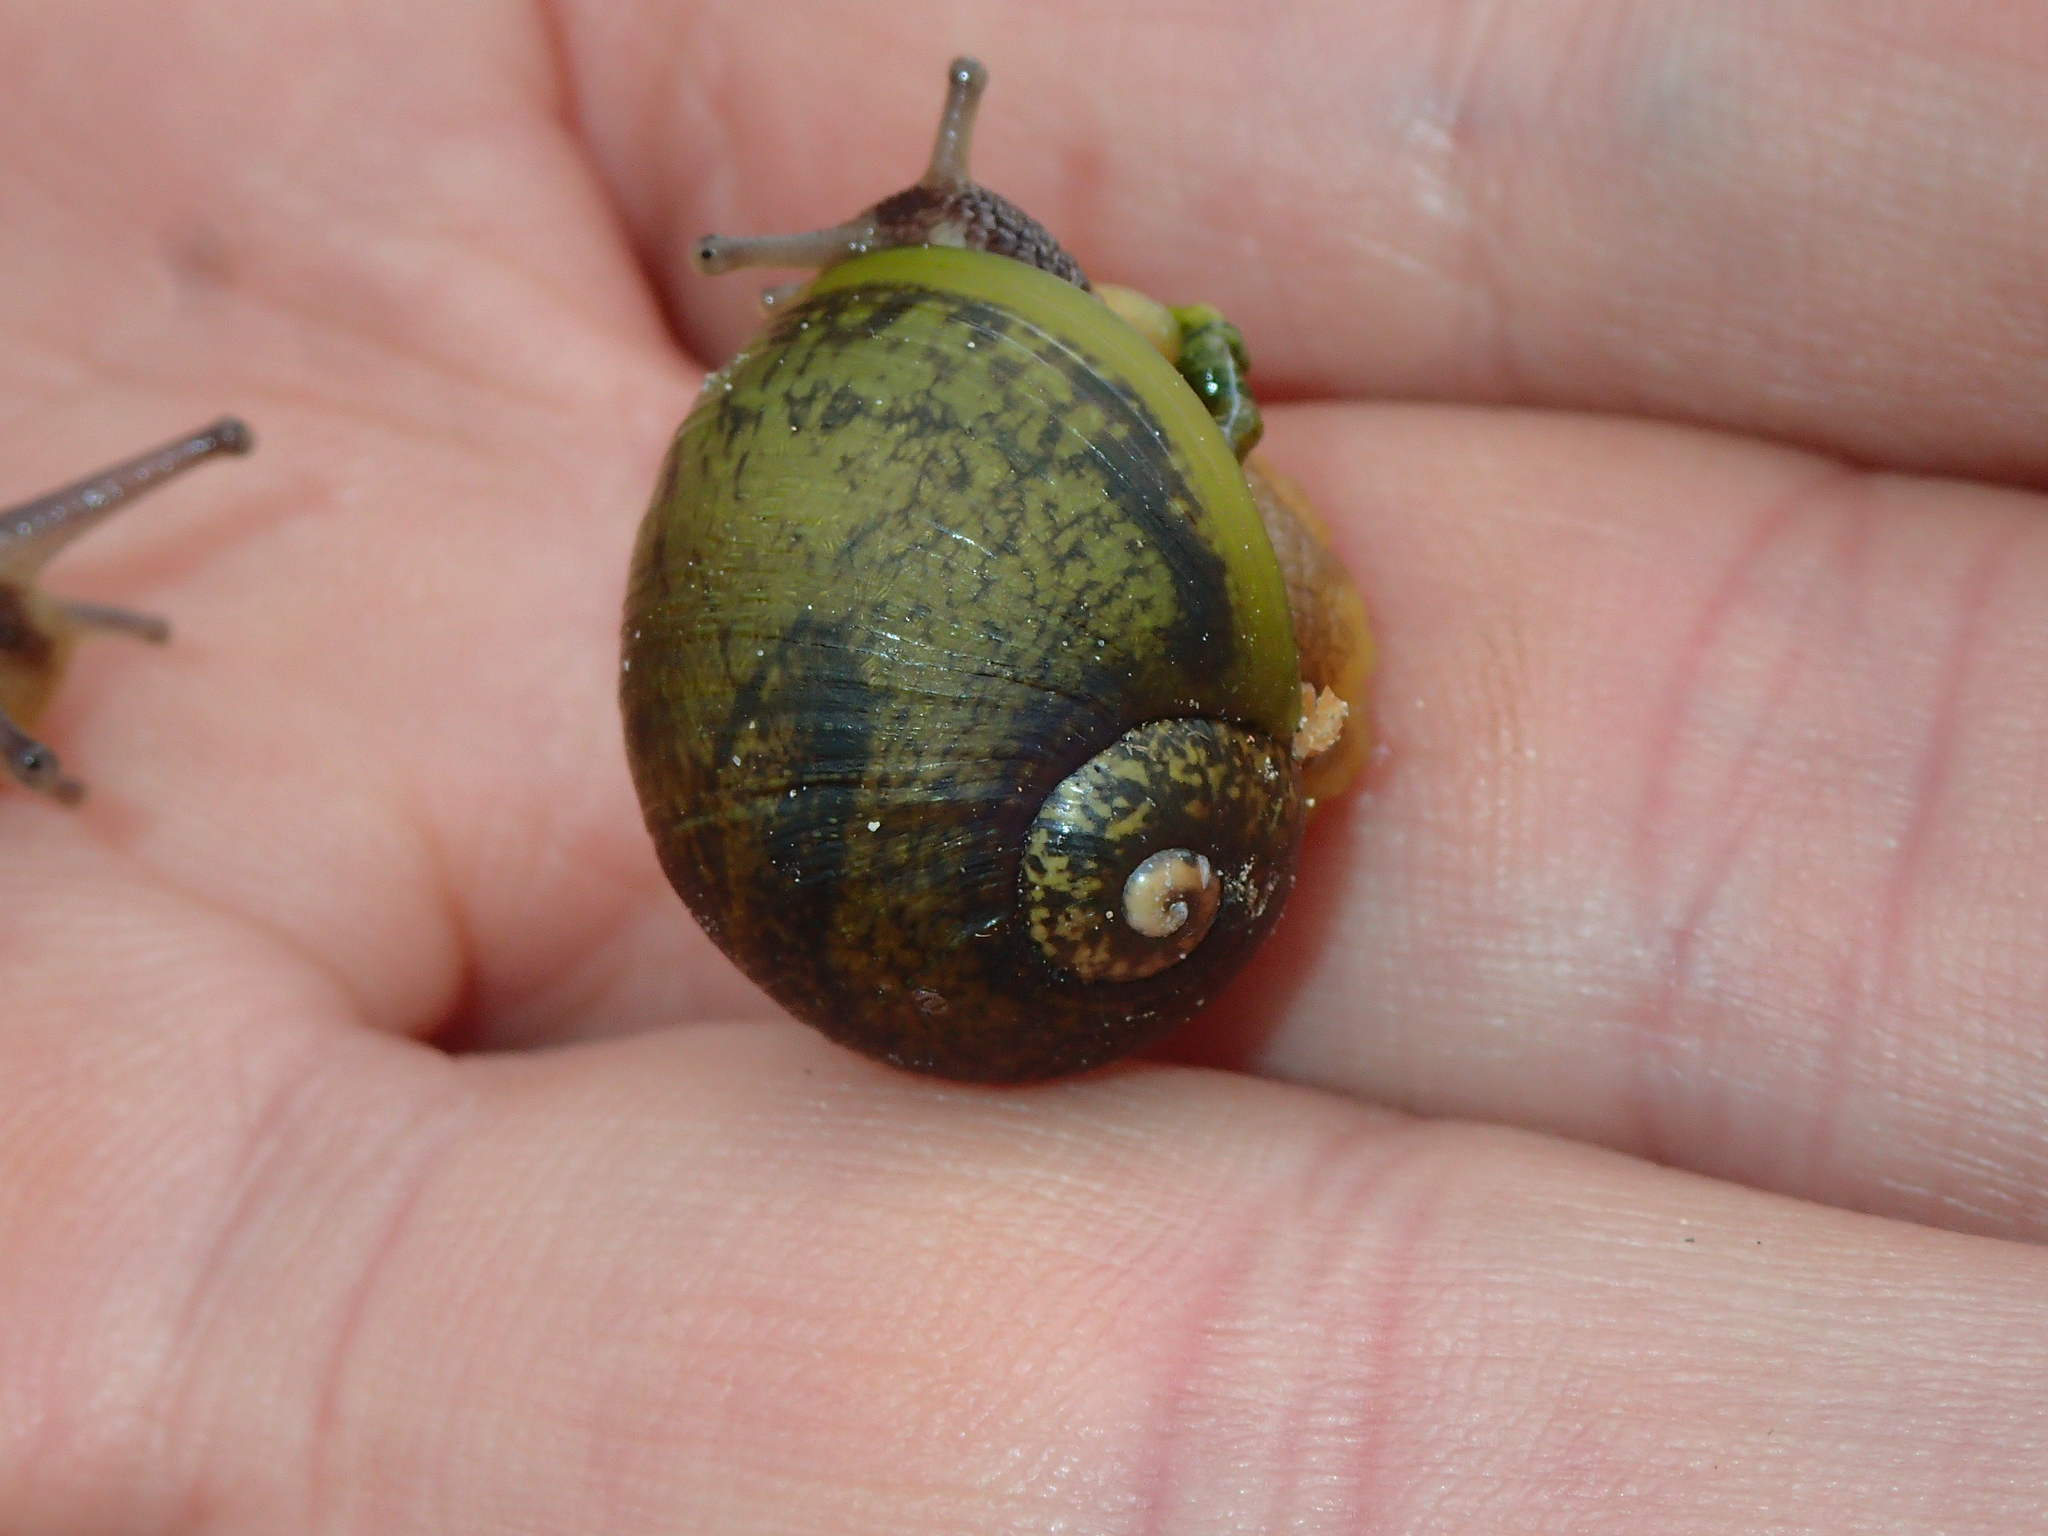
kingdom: Animalia
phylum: Mollusca
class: Gastropoda
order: Stylommatophora
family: Helicidae
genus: Cantareus
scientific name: Cantareus apertus
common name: Green gardensnail
